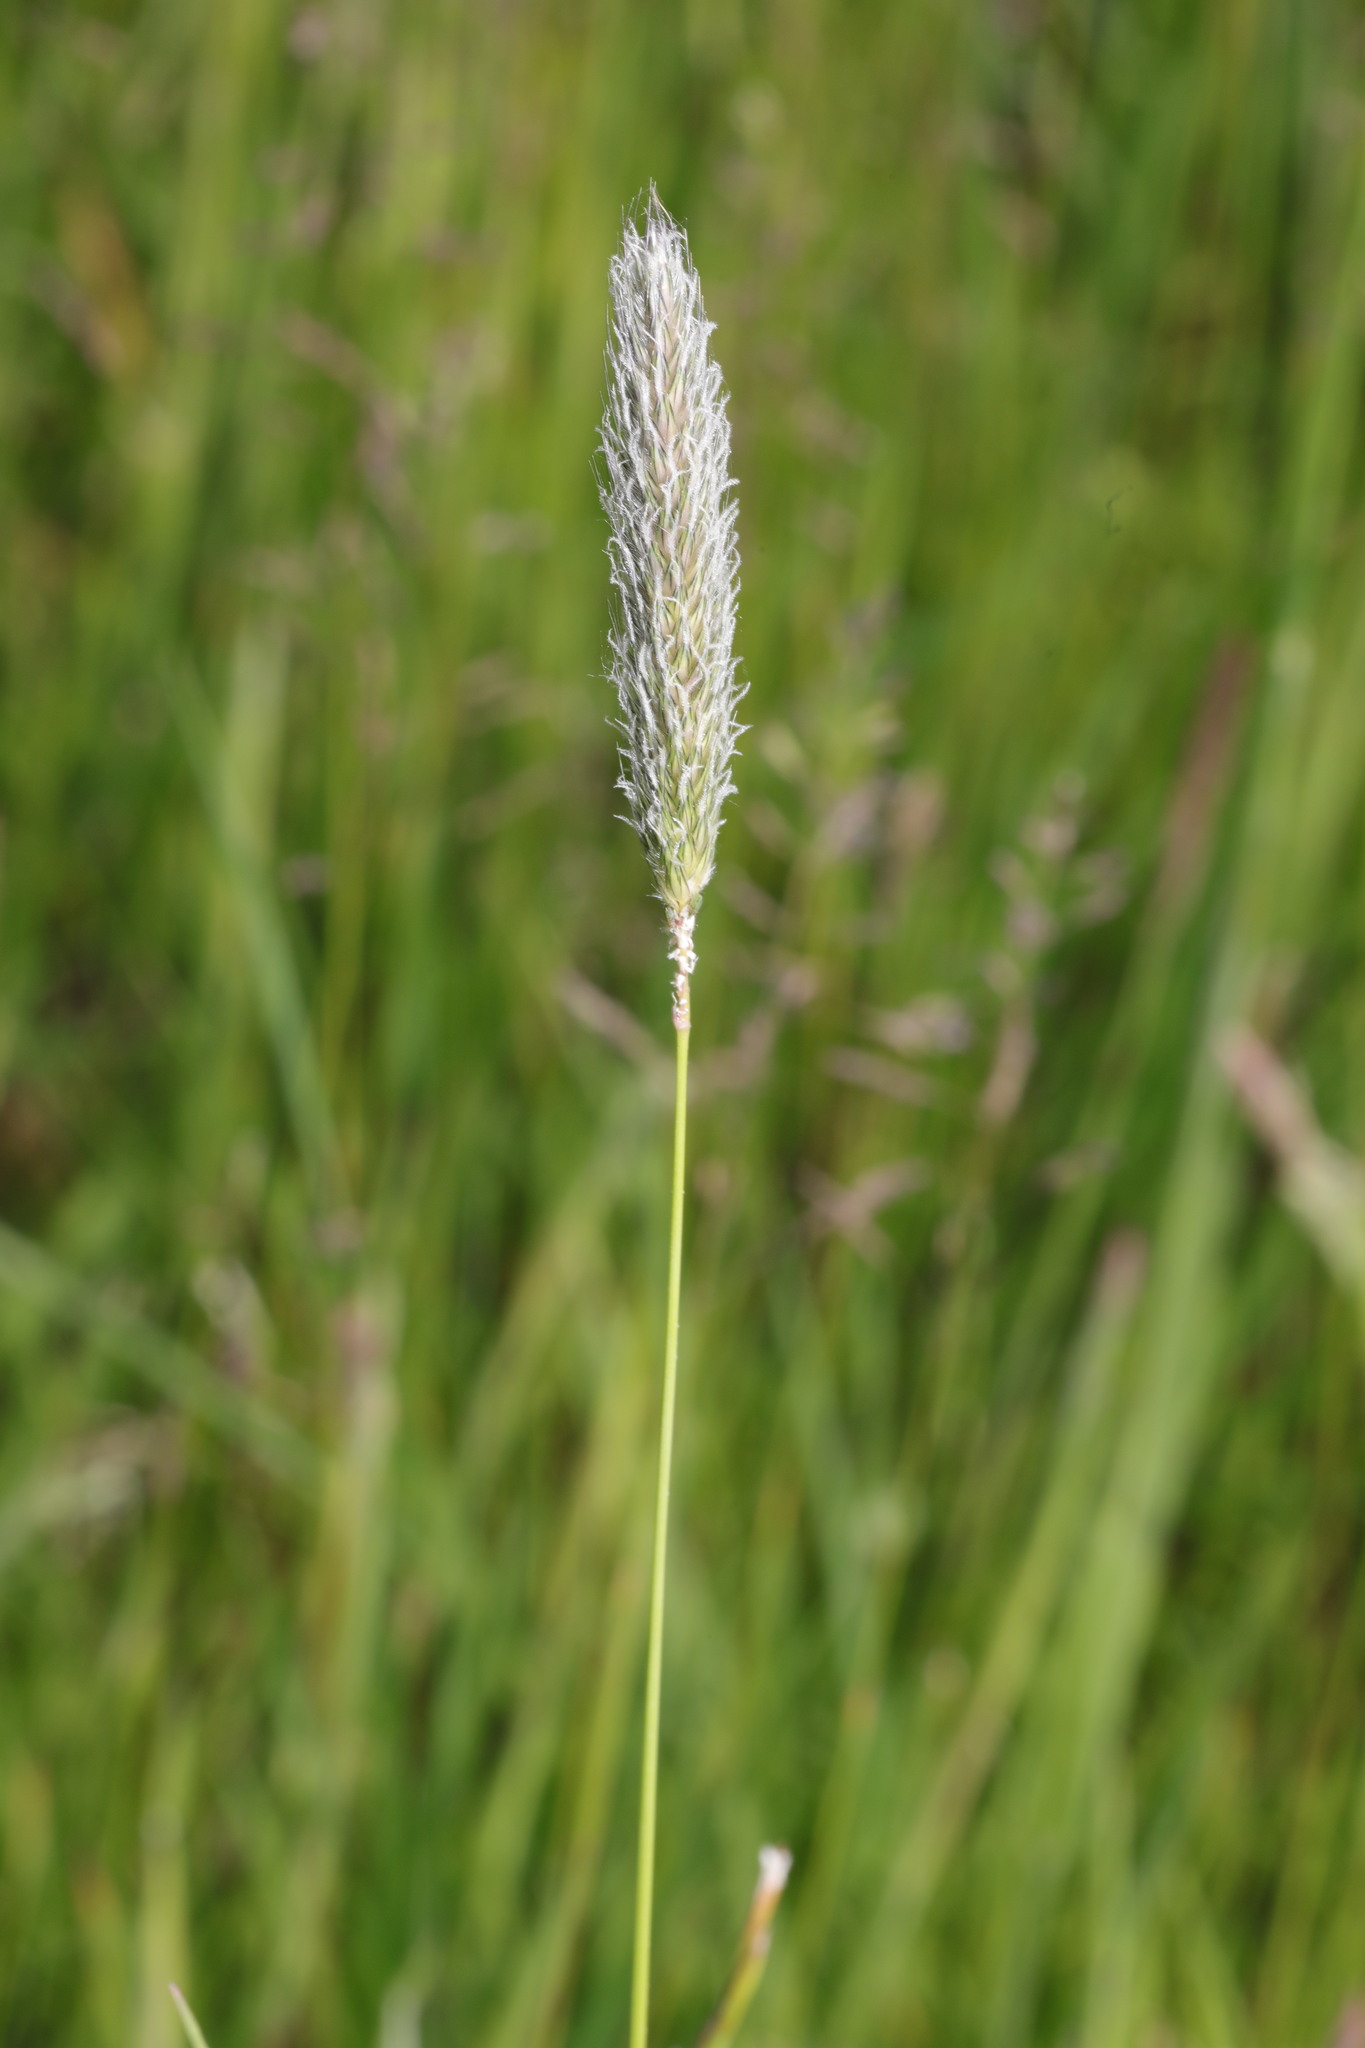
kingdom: Plantae
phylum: Tracheophyta
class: Liliopsida
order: Poales
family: Poaceae
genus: Alopecurus
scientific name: Alopecurus pratensis
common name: Meadow foxtail
